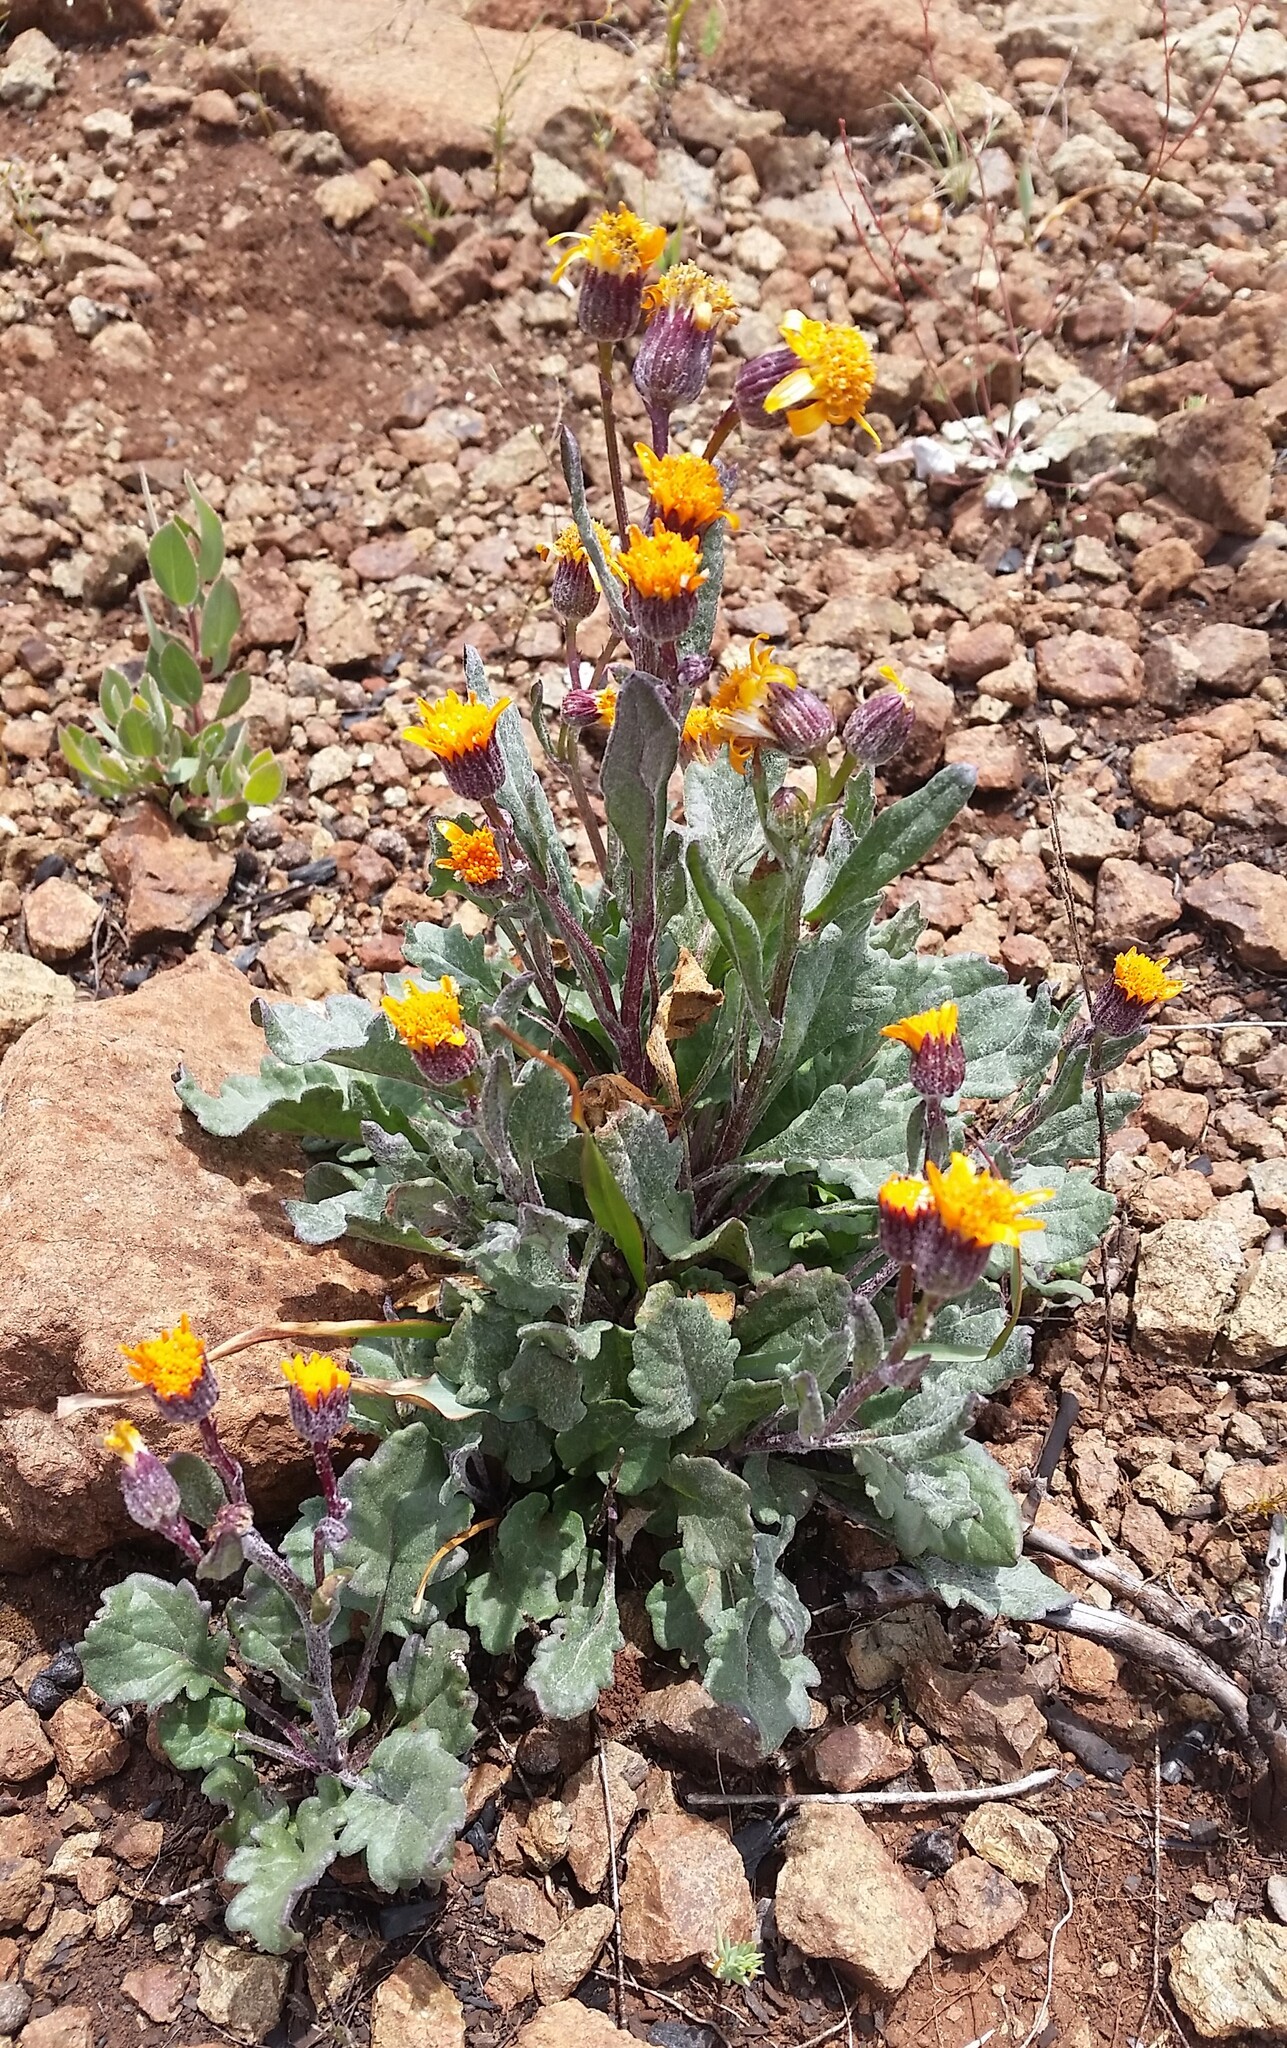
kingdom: Plantae
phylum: Tracheophyta
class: Magnoliopsida
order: Asterales
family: Asteraceae
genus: Packera
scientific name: Packera greenei
